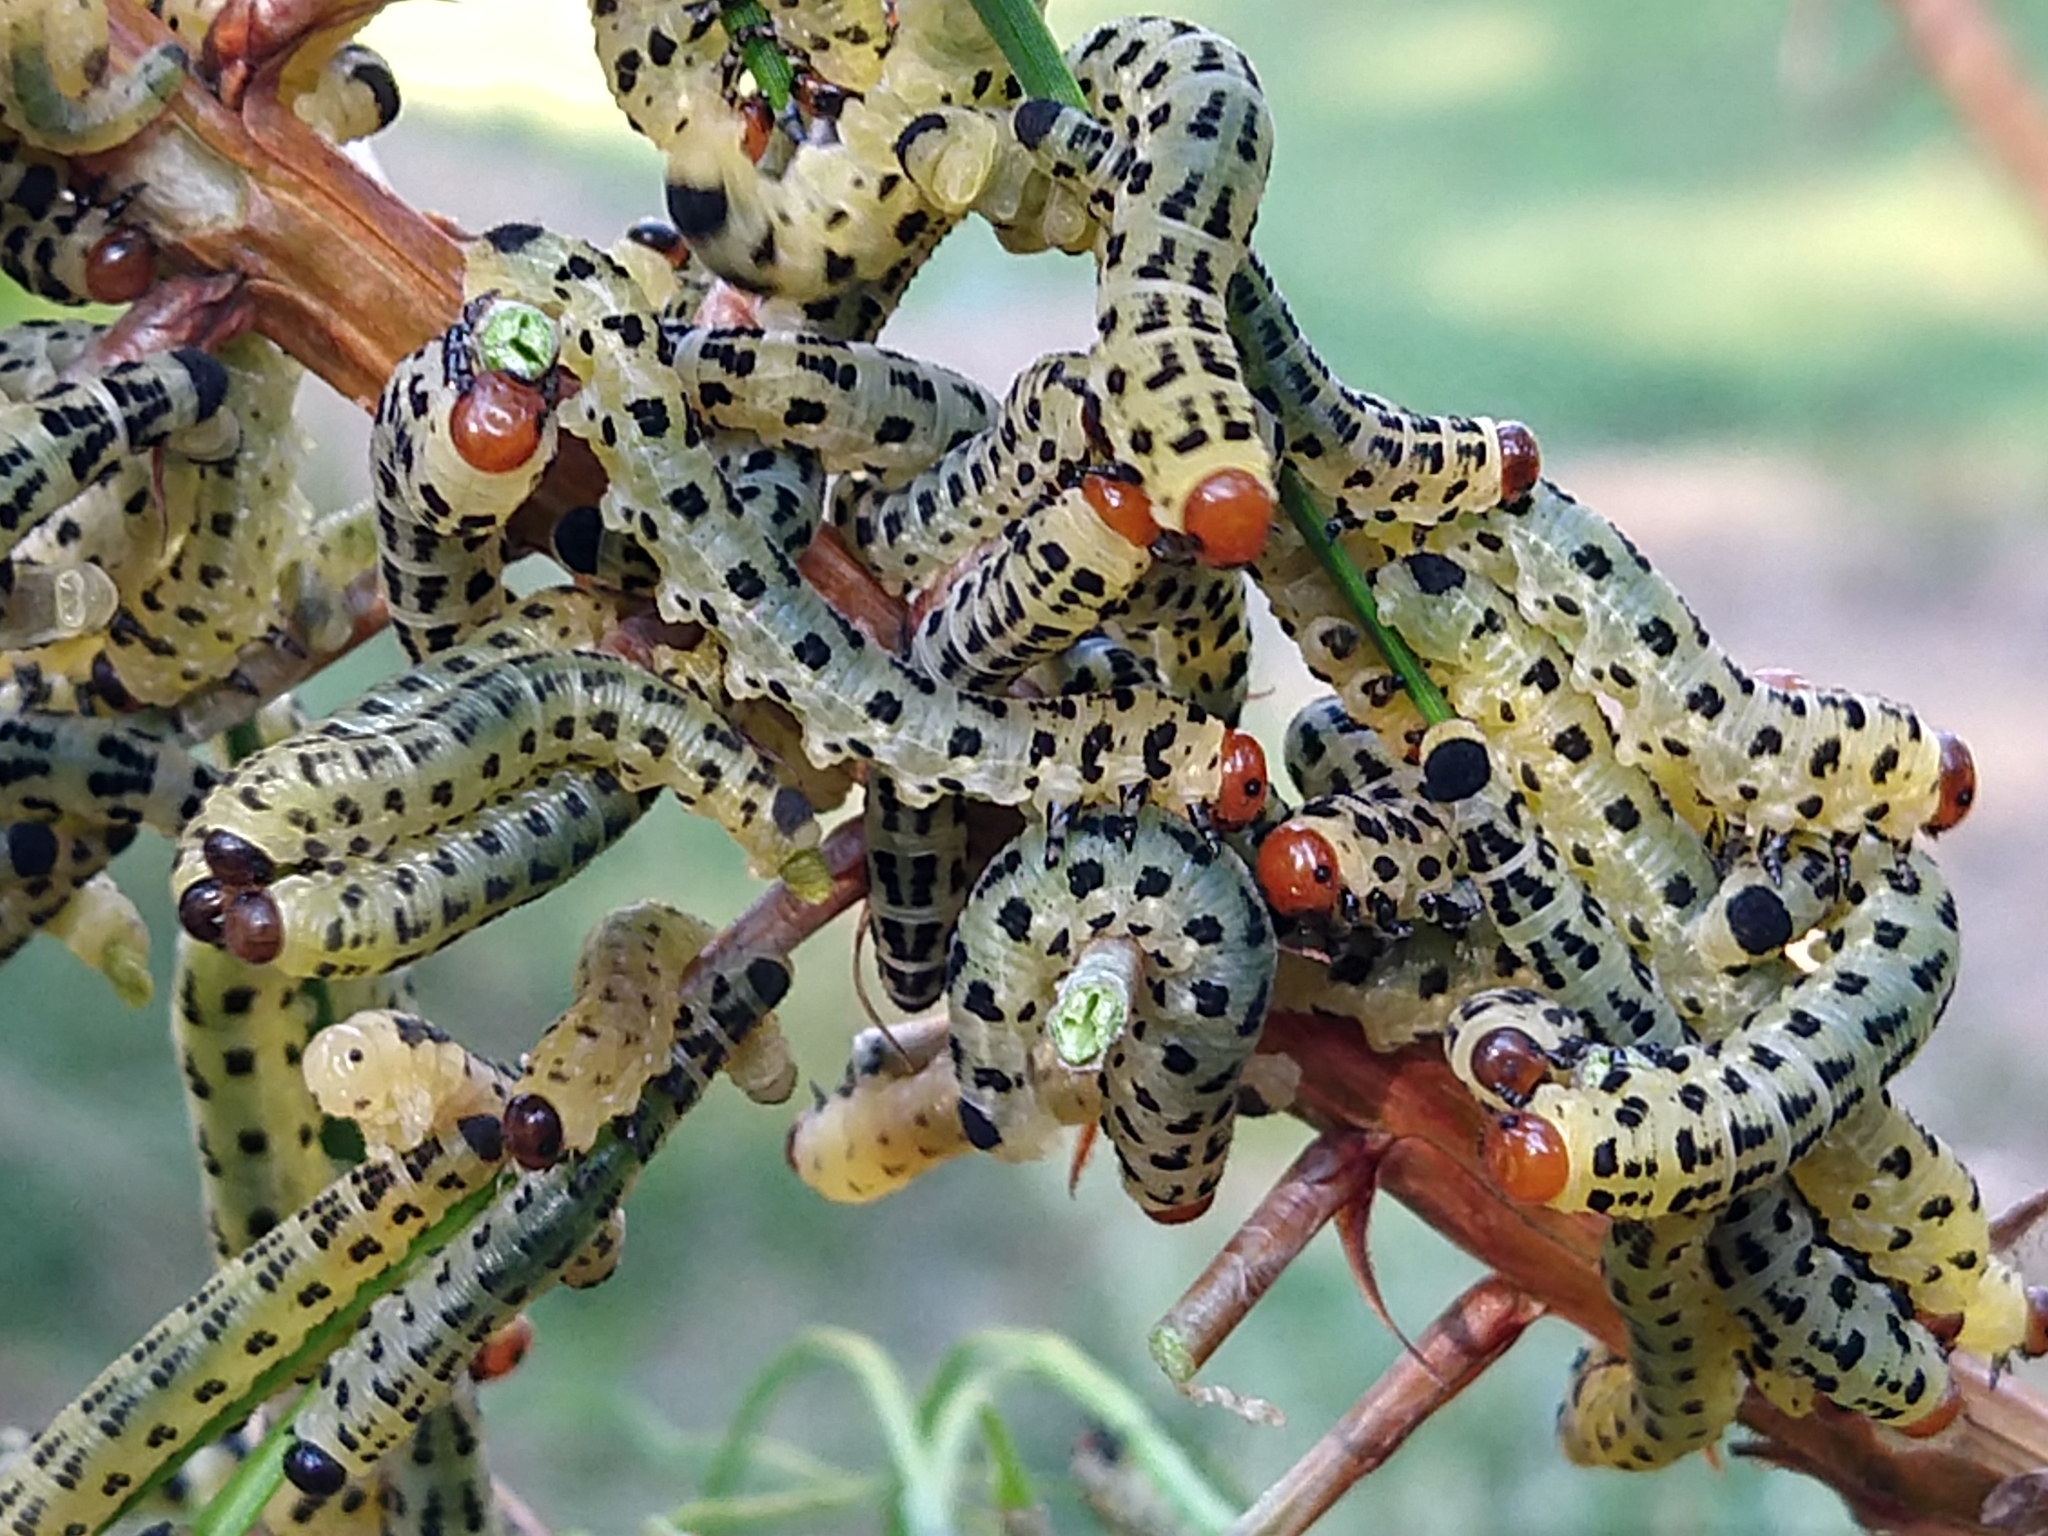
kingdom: Animalia
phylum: Arthropoda
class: Insecta
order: Hymenoptera
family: Diprionidae
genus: Neodiprion
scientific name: Neodiprion lecontei
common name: Redheaded pine sawfly
